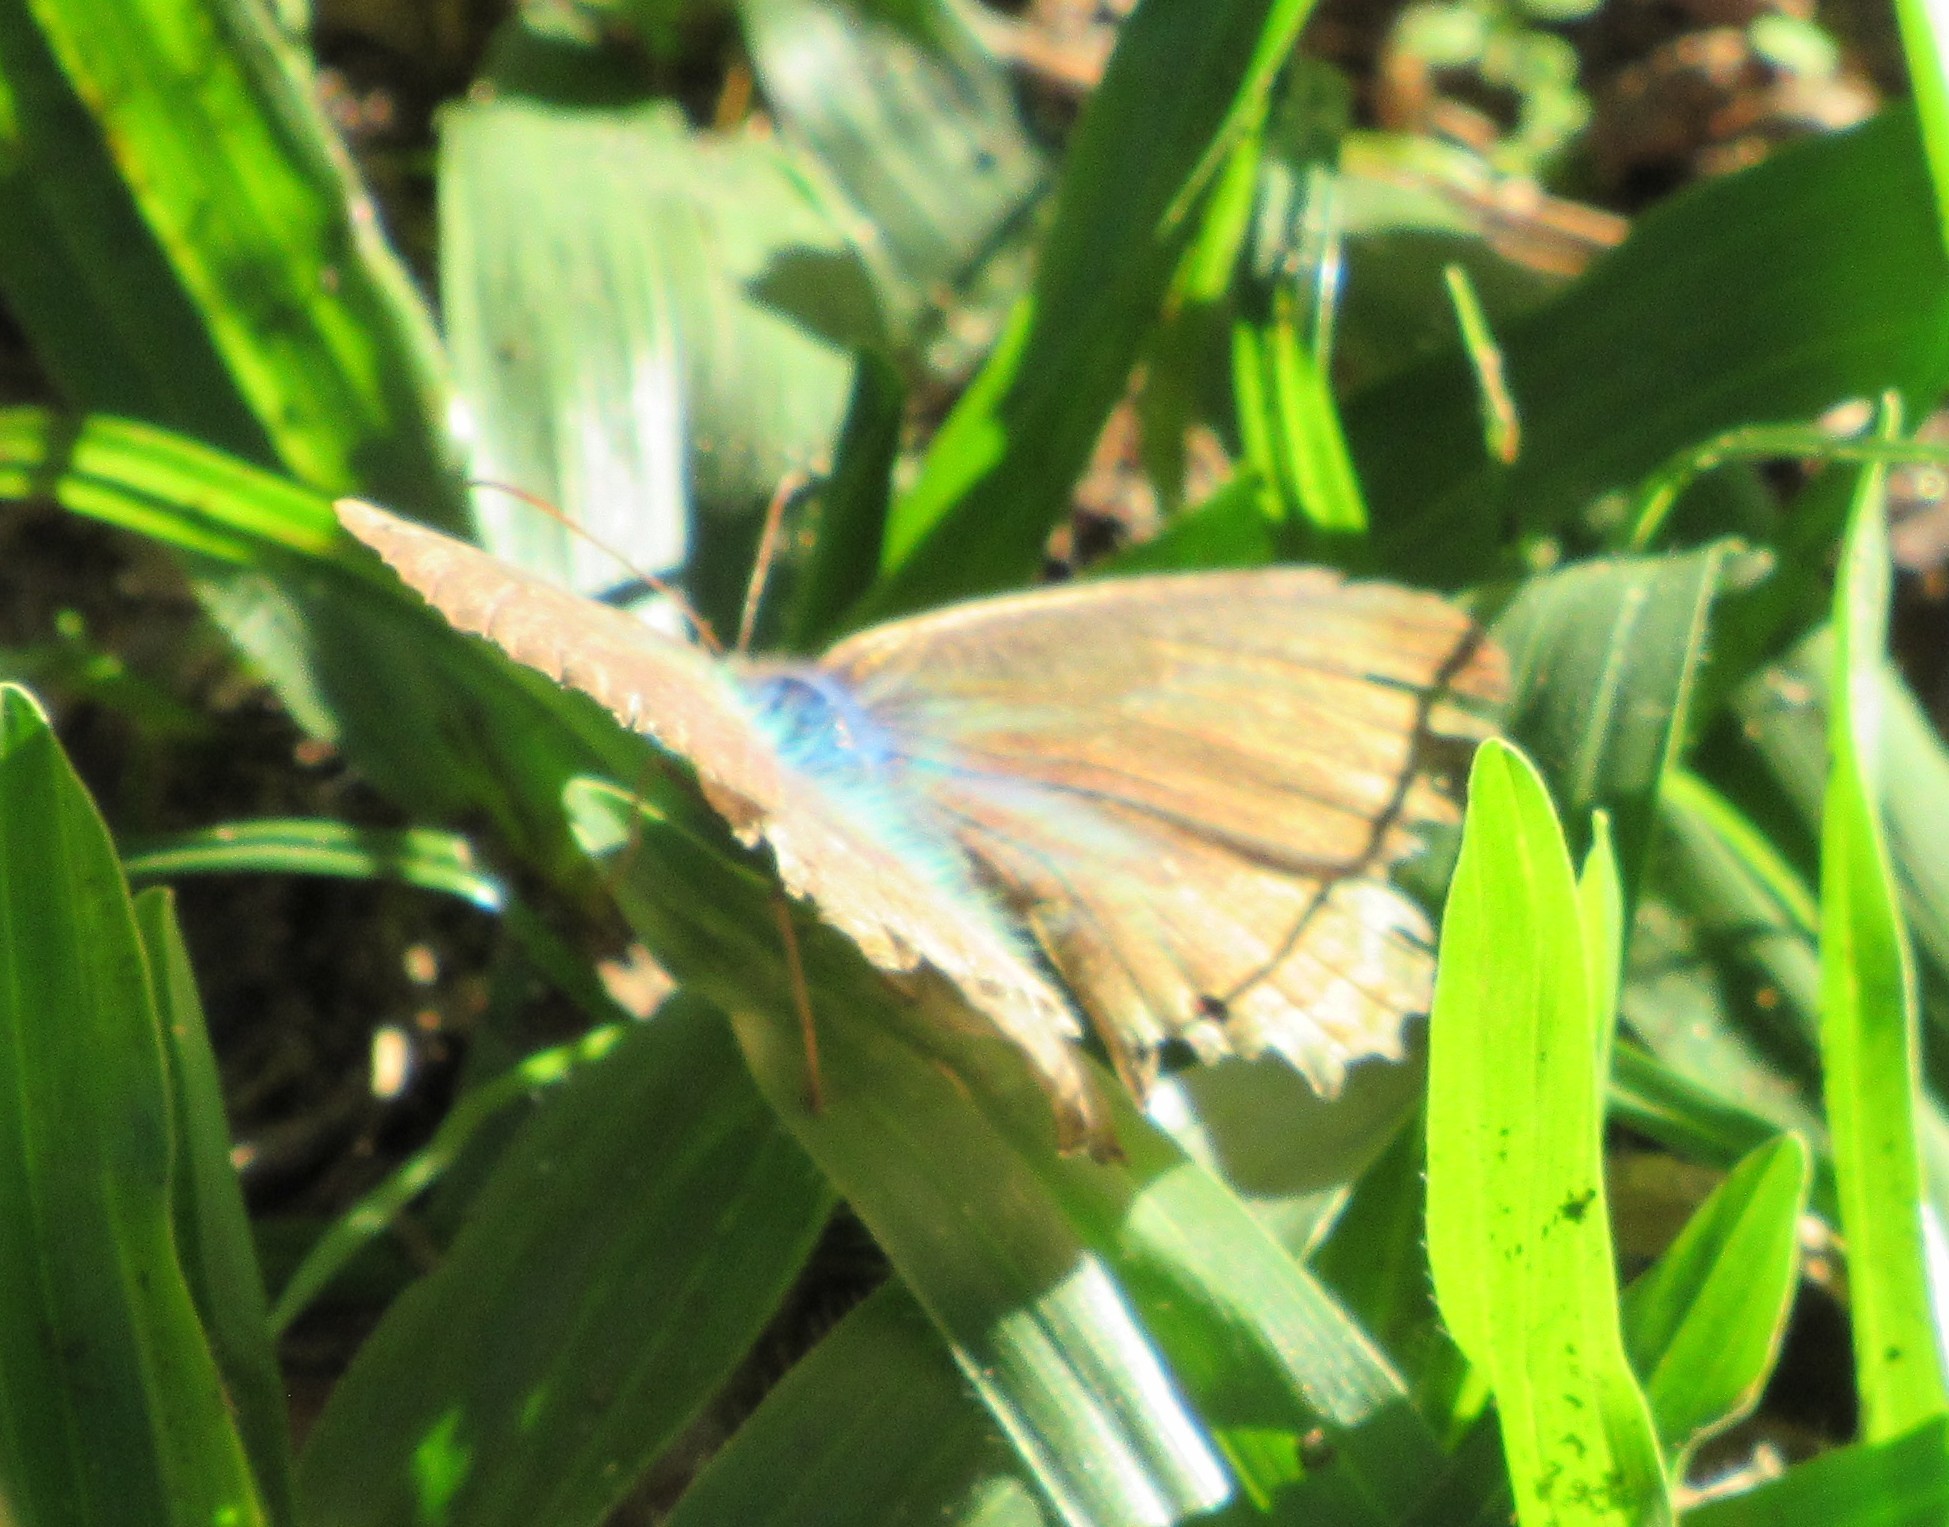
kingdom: Animalia
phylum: Arthropoda
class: Insecta
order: Lepidoptera
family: Nymphalidae
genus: Carminda
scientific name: Carminda paeon
